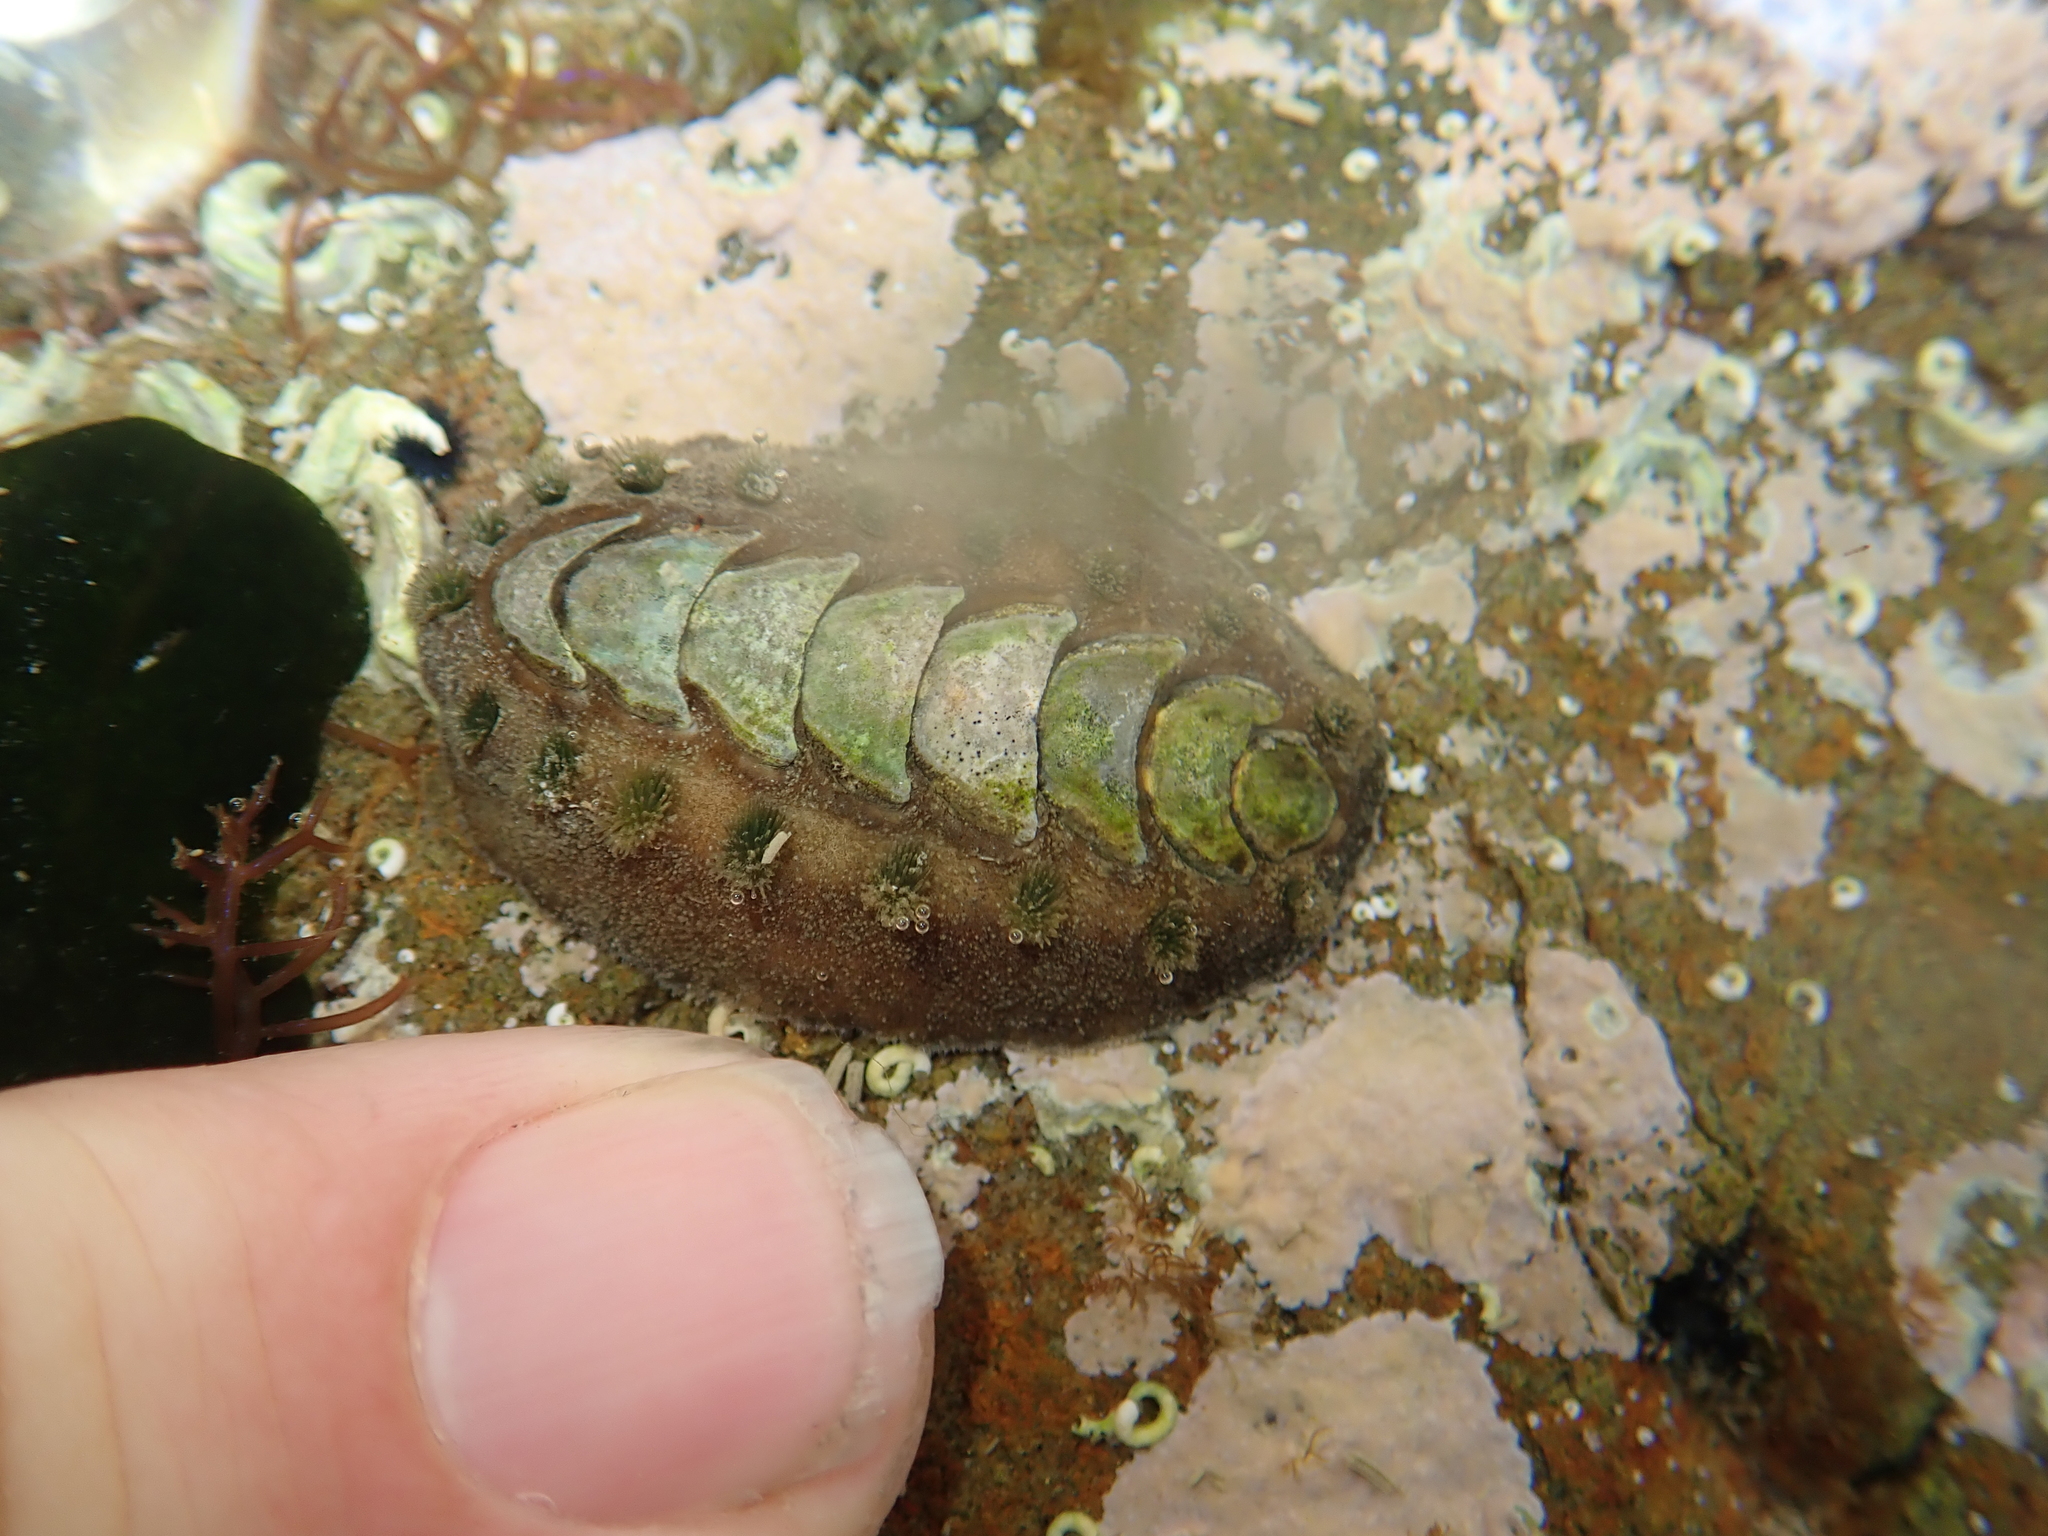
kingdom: Animalia
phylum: Mollusca
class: Polyplacophora
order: Chitonida
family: Acanthochitonidae
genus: Acanthochitona
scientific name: Acanthochitona zelandica
